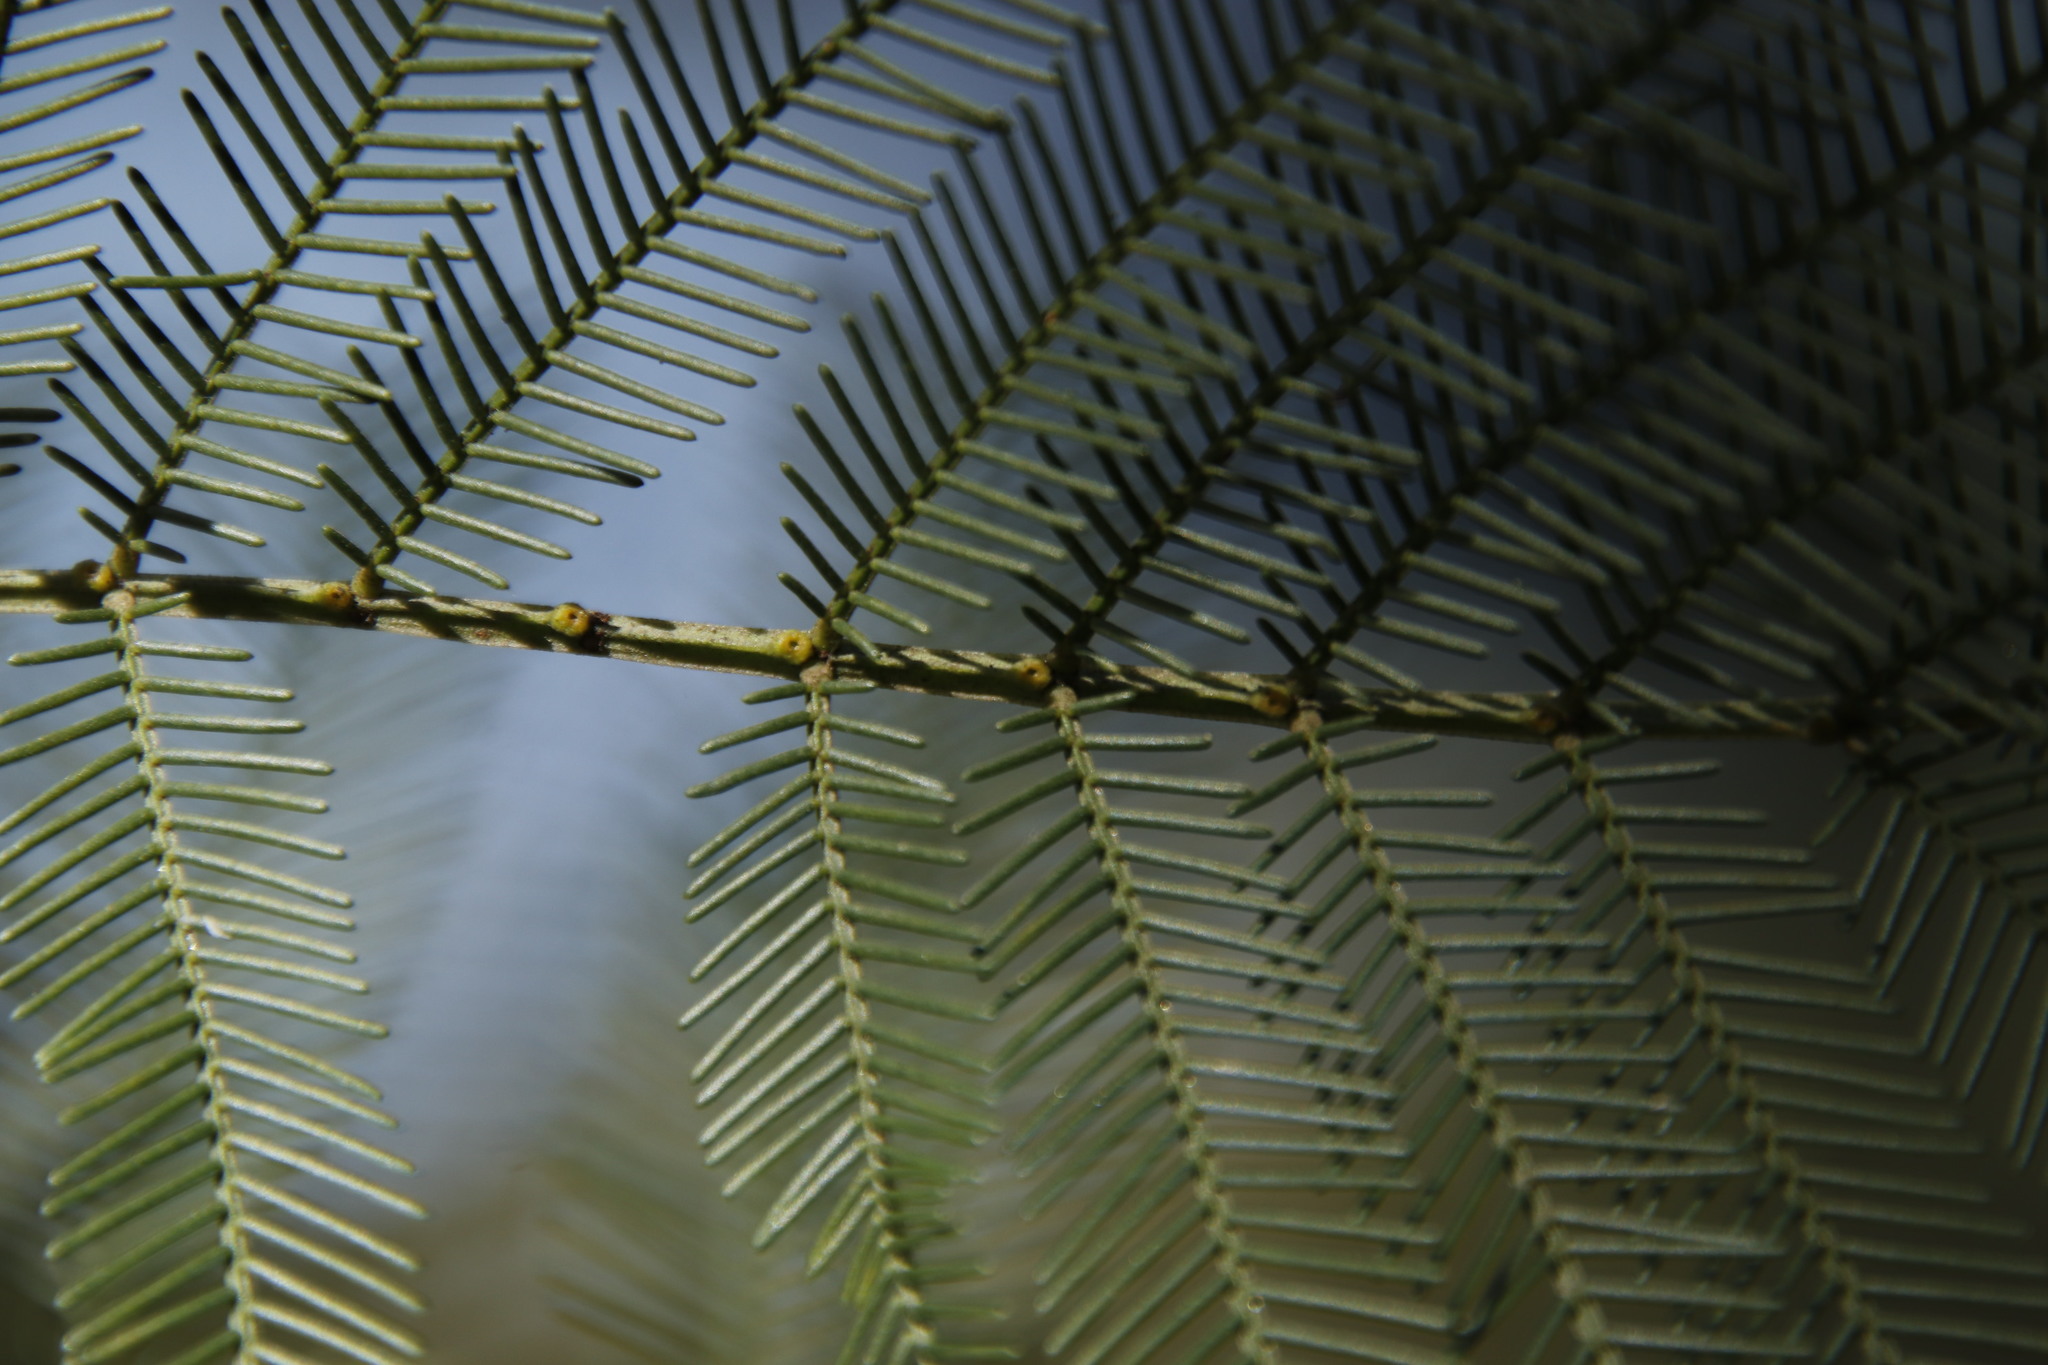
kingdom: Plantae
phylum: Tracheophyta
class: Magnoliopsida
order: Fabales
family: Fabaceae
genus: Acacia
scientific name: Acacia decurrens
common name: Green wattle
